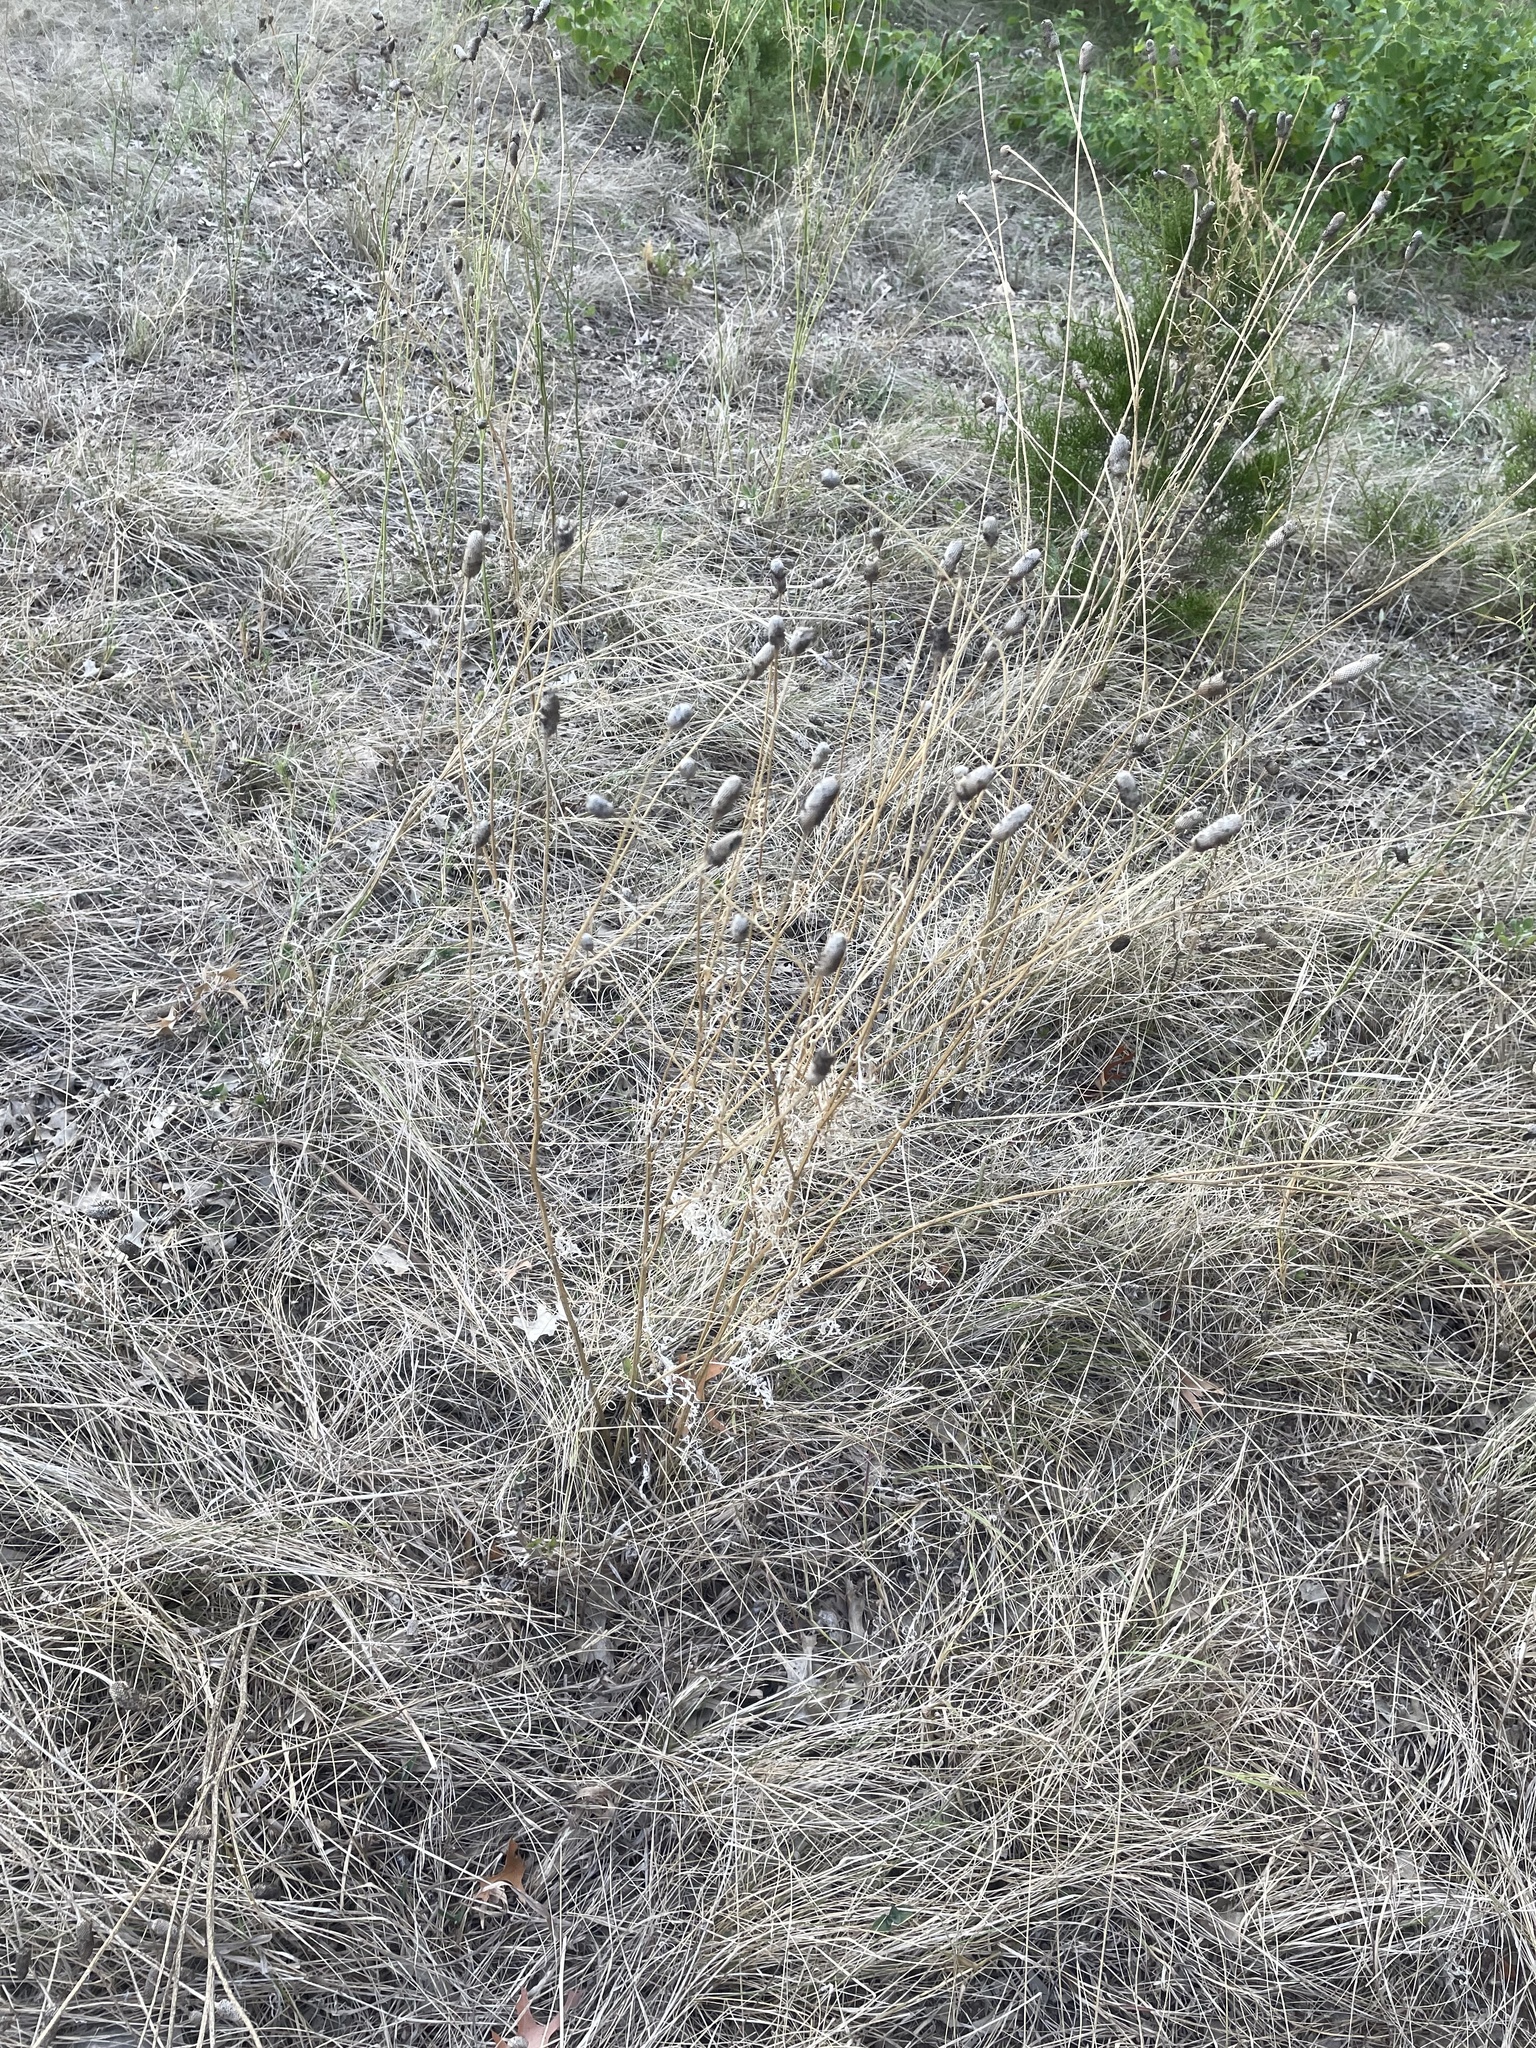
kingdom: Plantae
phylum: Tracheophyta
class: Magnoliopsida
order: Asterales
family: Asteraceae
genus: Ratibida
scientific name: Ratibida columnifera
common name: Prairie coneflower
